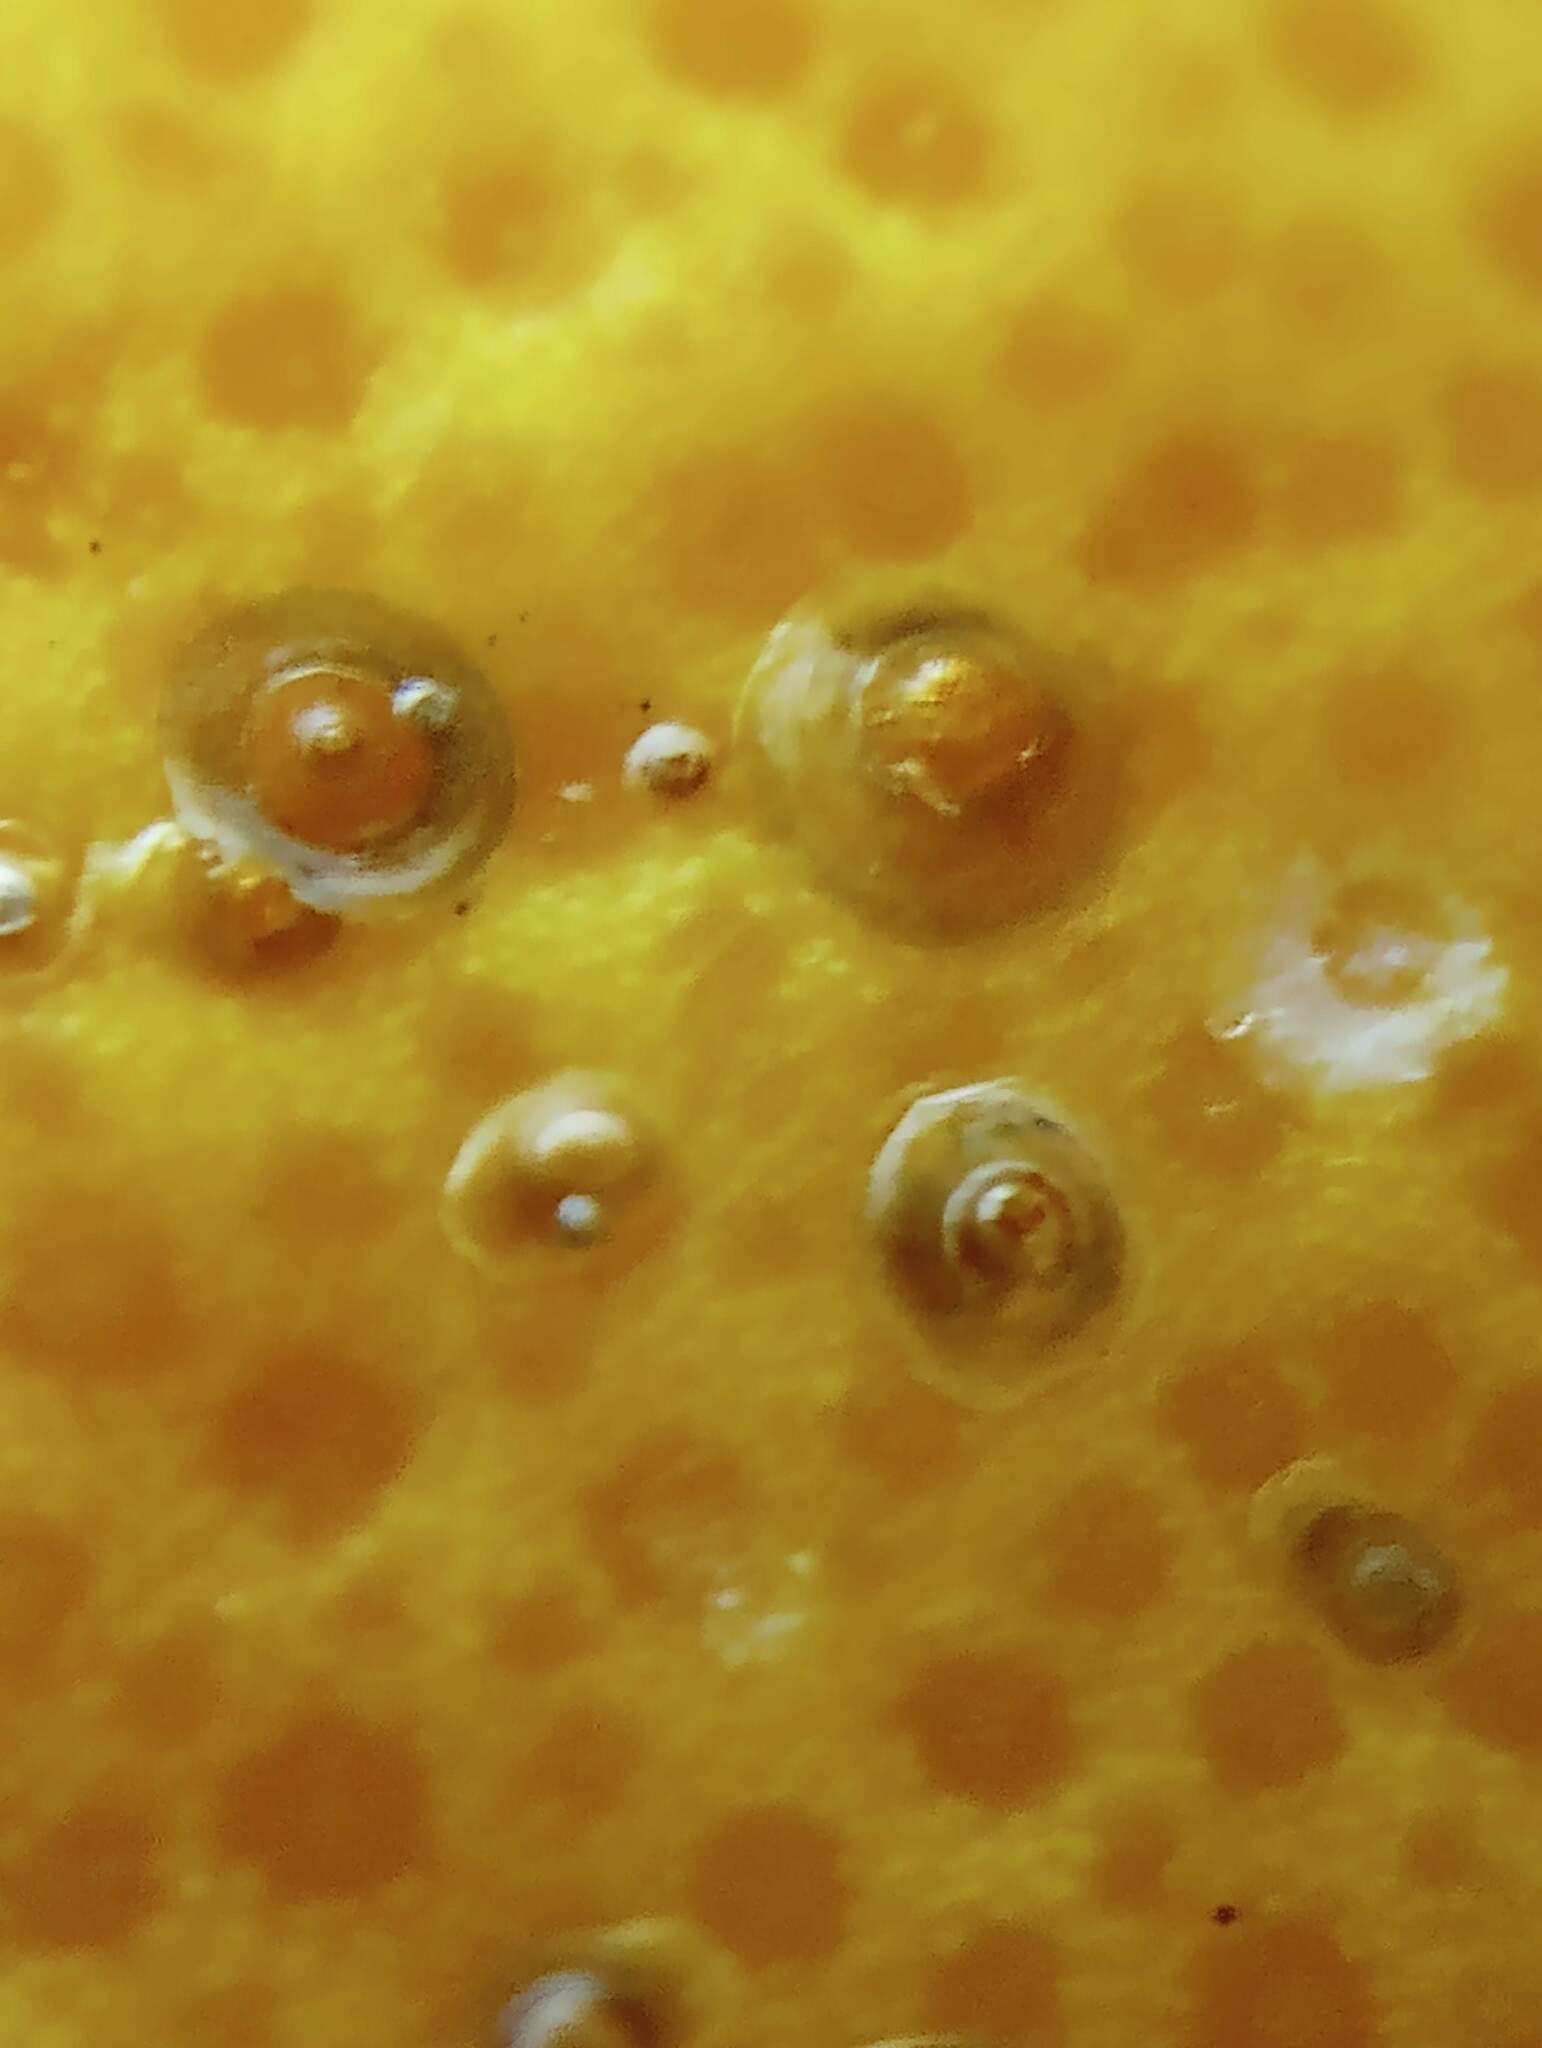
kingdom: Animalia
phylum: Arthropoda
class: Insecta
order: Hemiptera
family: Diaspididae
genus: Aonidiella
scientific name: Aonidiella aurantii
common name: California red scale
